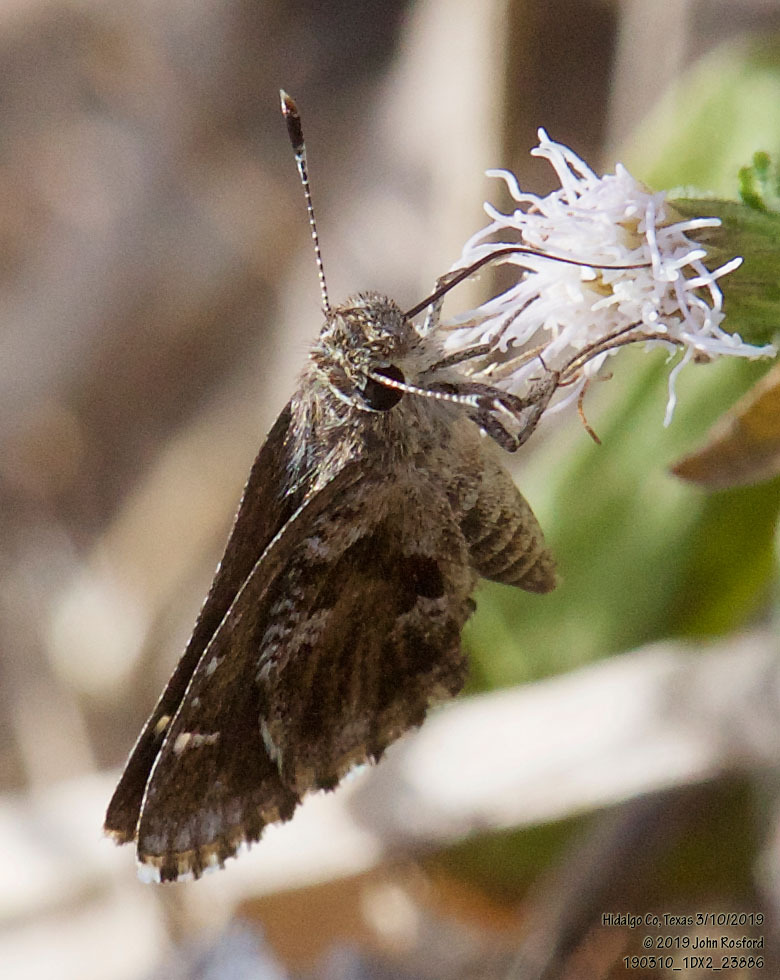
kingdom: Animalia
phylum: Arthropoda
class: Insecta
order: Lepidoptera
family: Hesperiidae
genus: Mastor
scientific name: Mastor nysa
